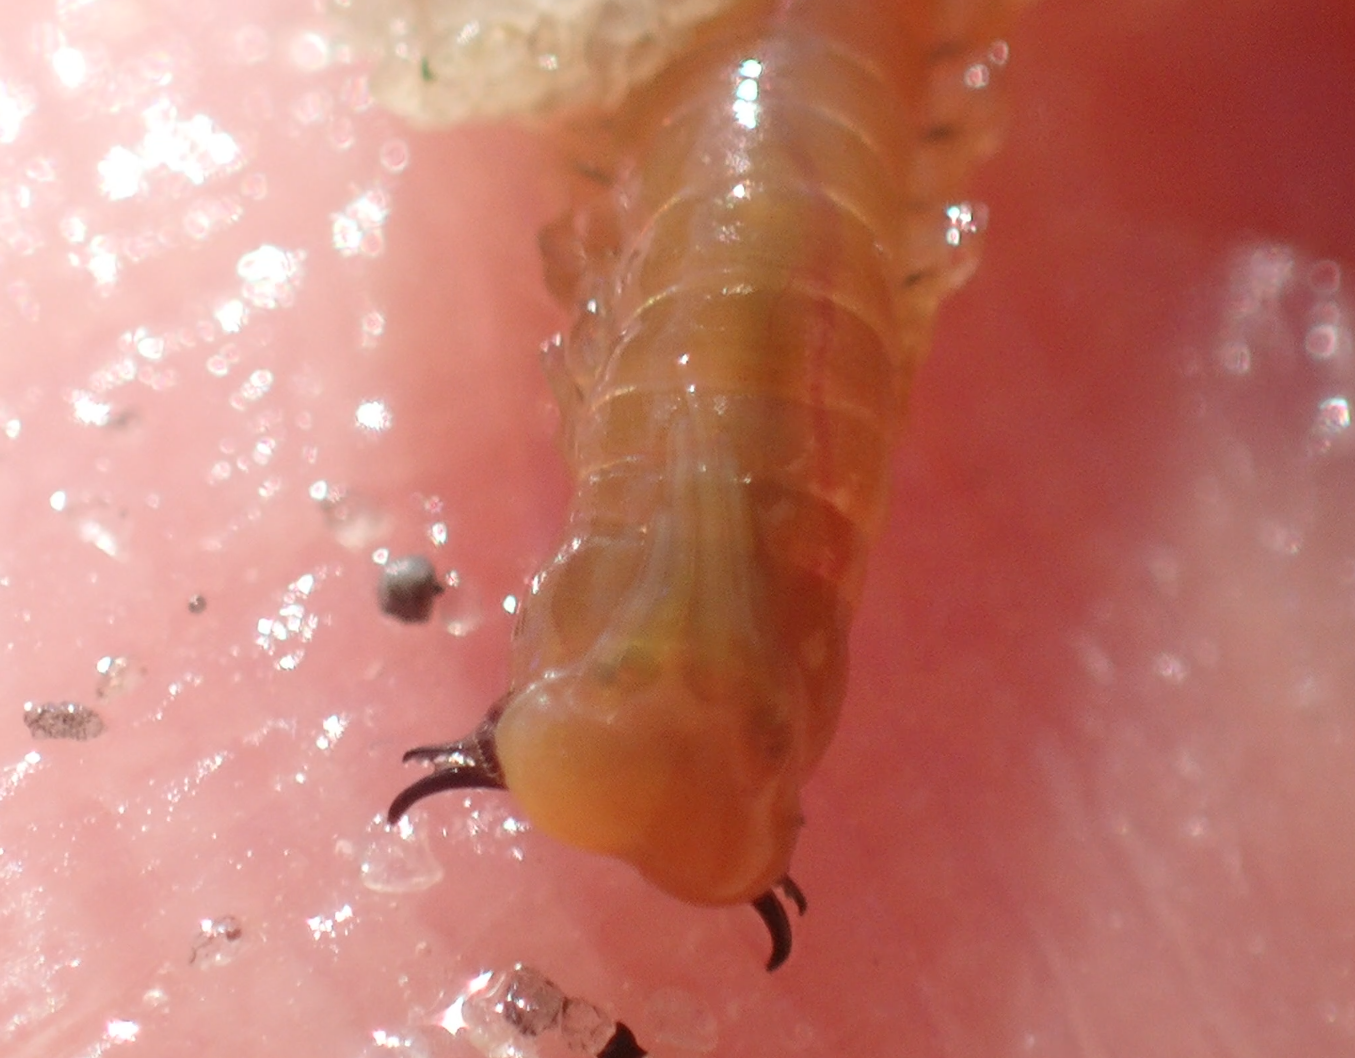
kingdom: Animalia
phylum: Annelida
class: Polychaeta
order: Eunicida
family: Eunicidae
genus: Marphysa
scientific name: Marphysa
